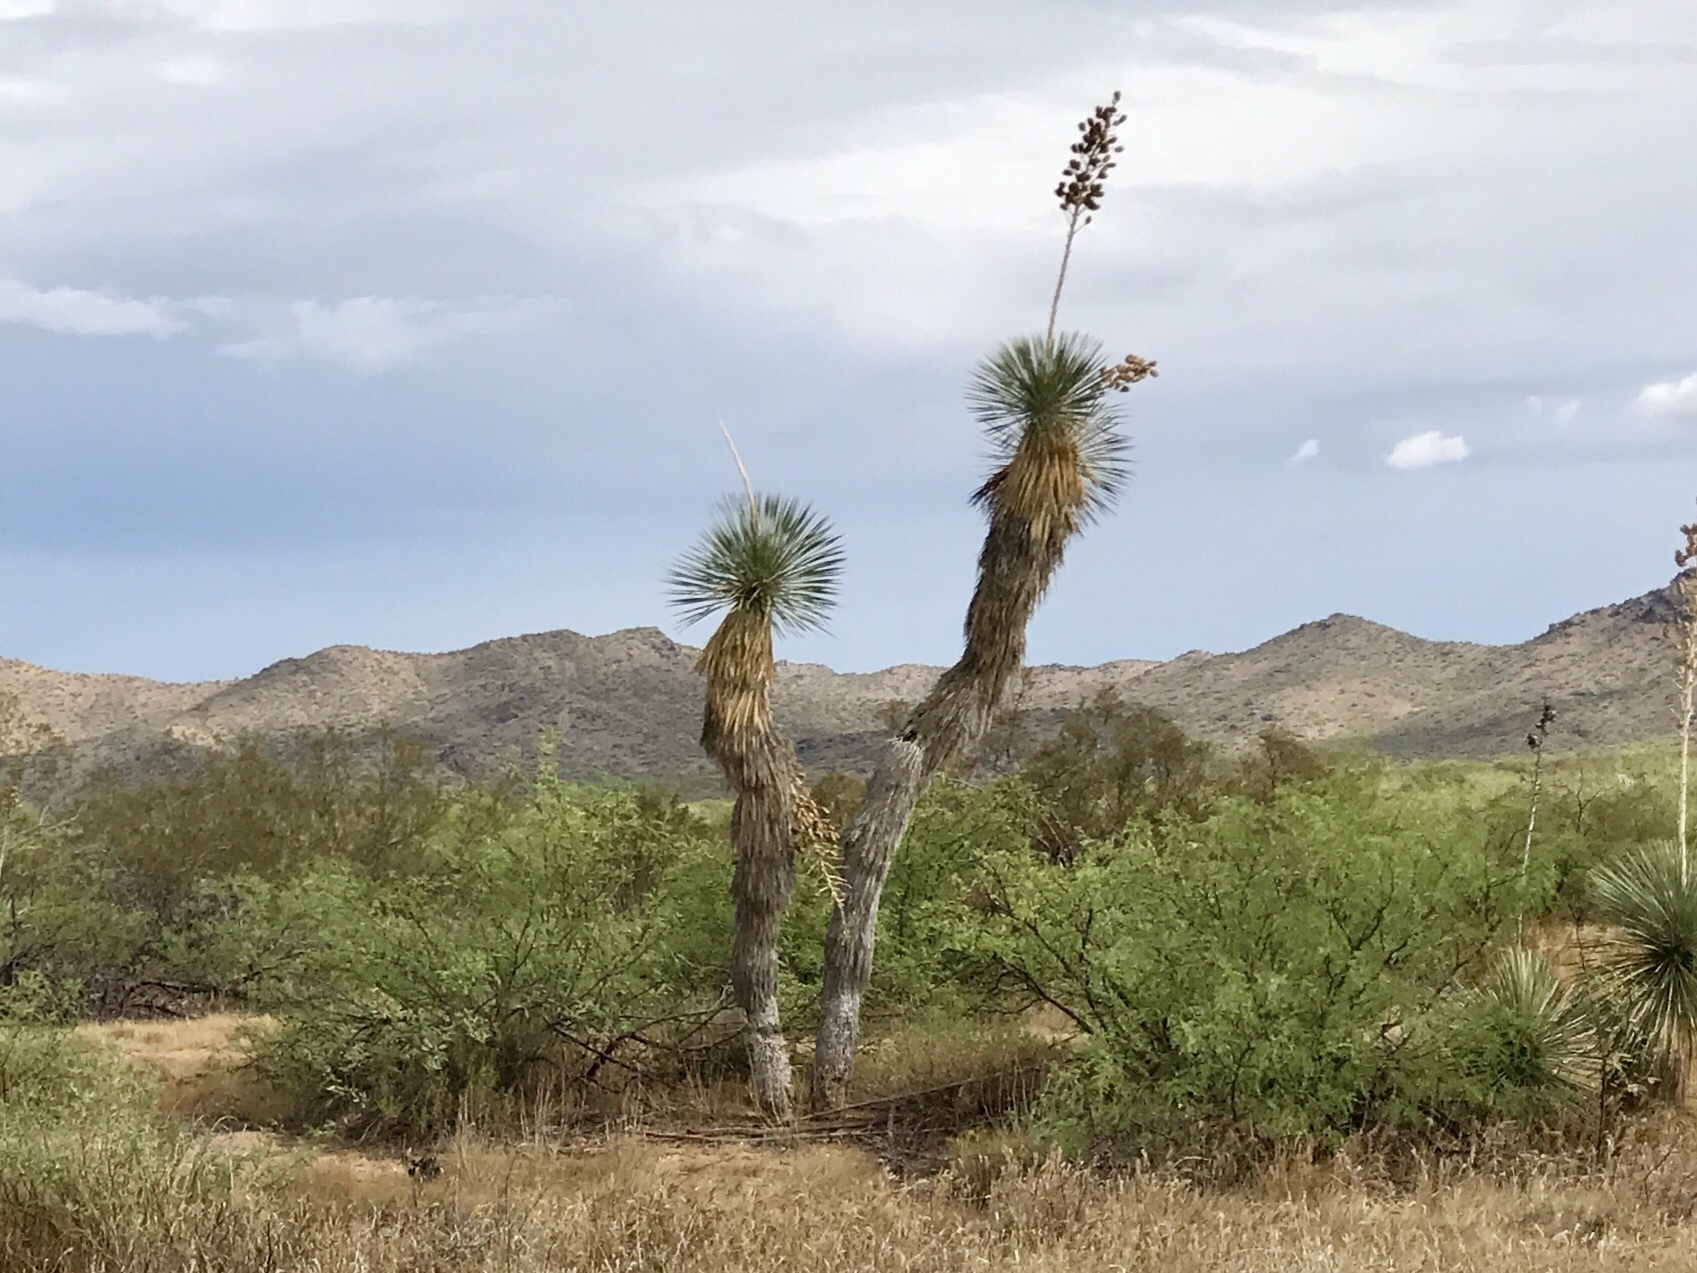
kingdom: Plantae
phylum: Tracheophyta
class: Liliopsida
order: Asparagales
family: Asparagaceae
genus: Yucca
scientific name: Yucca elata
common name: Palmella
